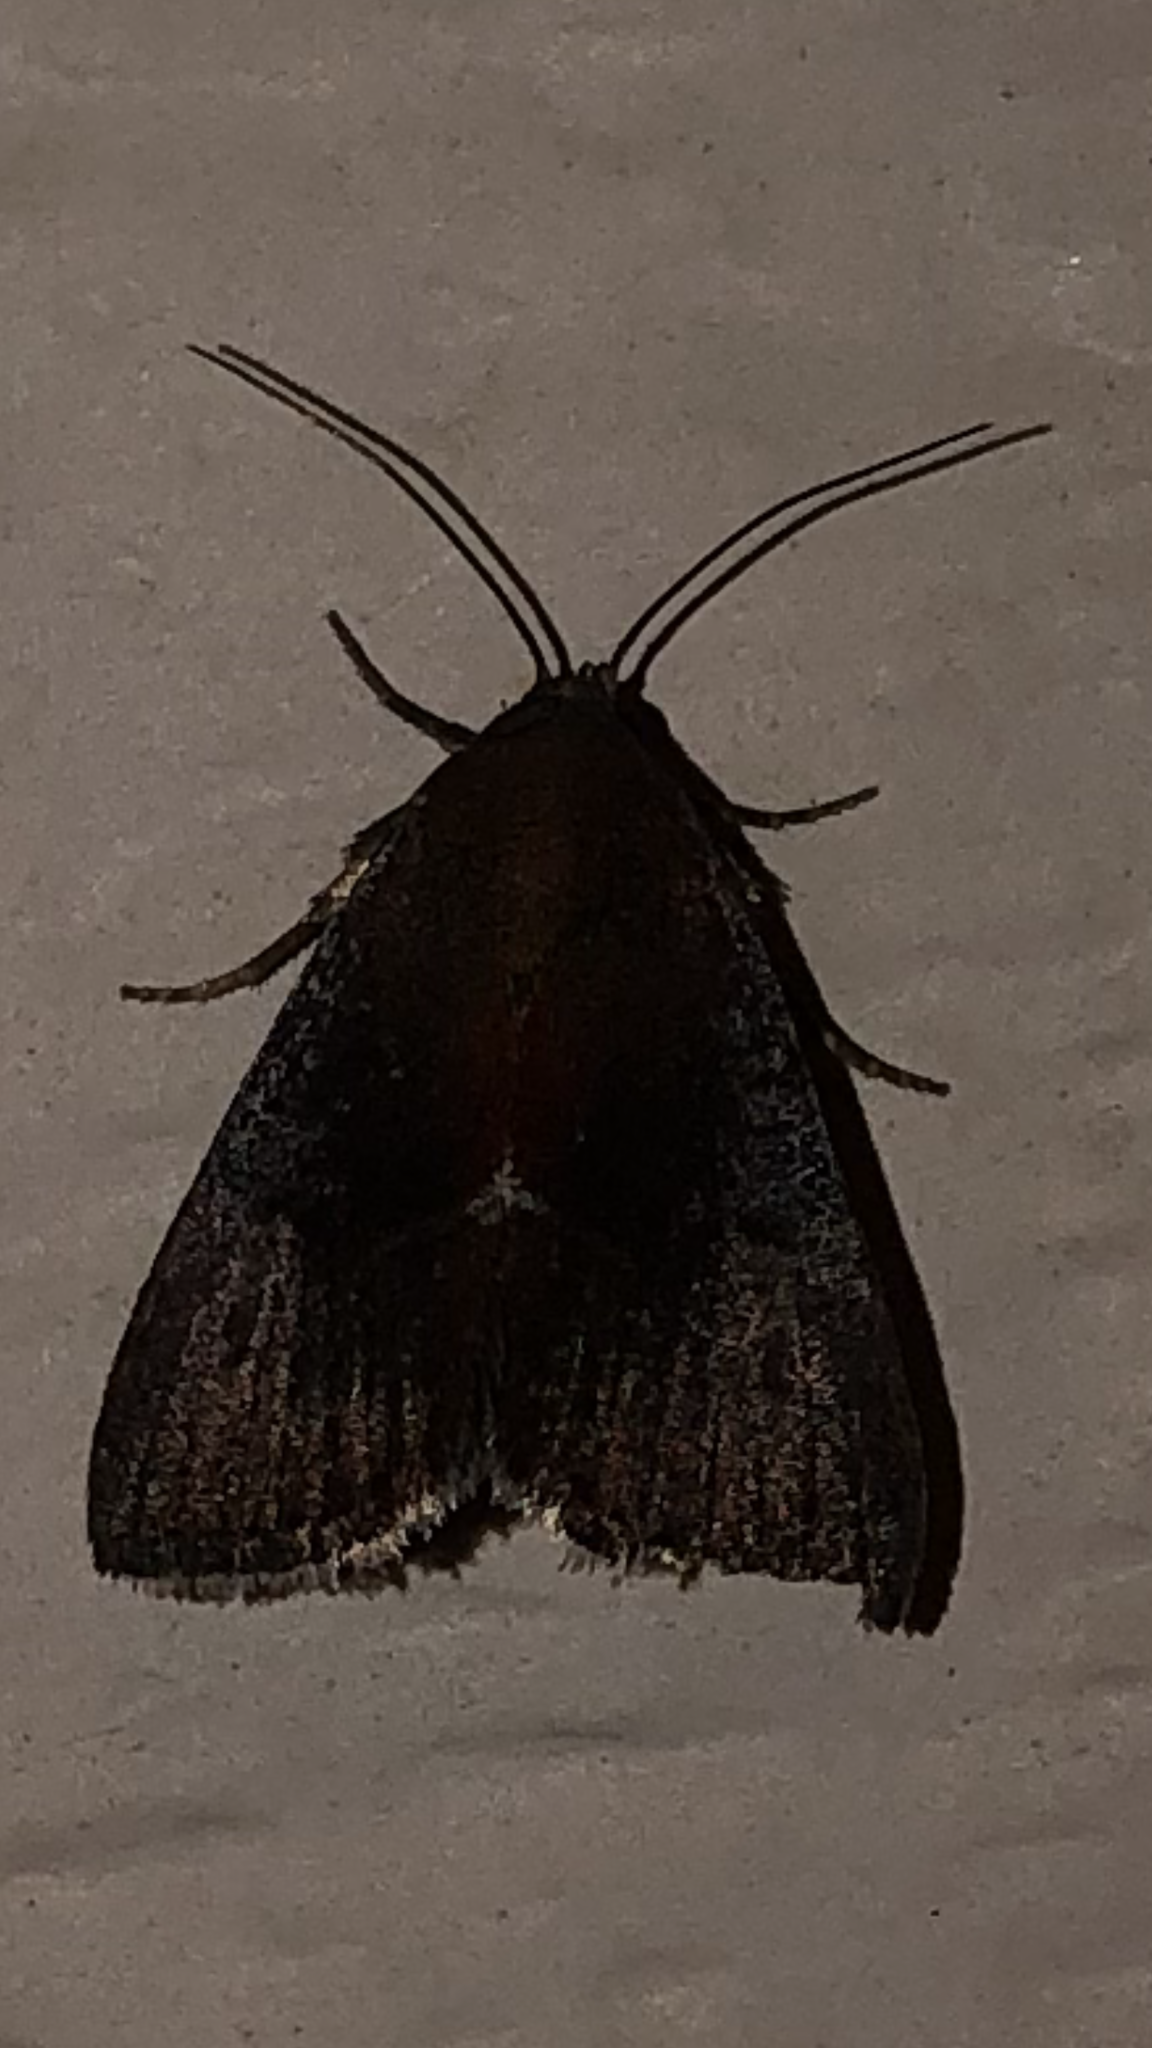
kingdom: Animalia
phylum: Arthropoda
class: Insecta
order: Lepidoptera
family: Noctuidae
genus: Galgula
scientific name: Galgula partita
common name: Wedgeling
